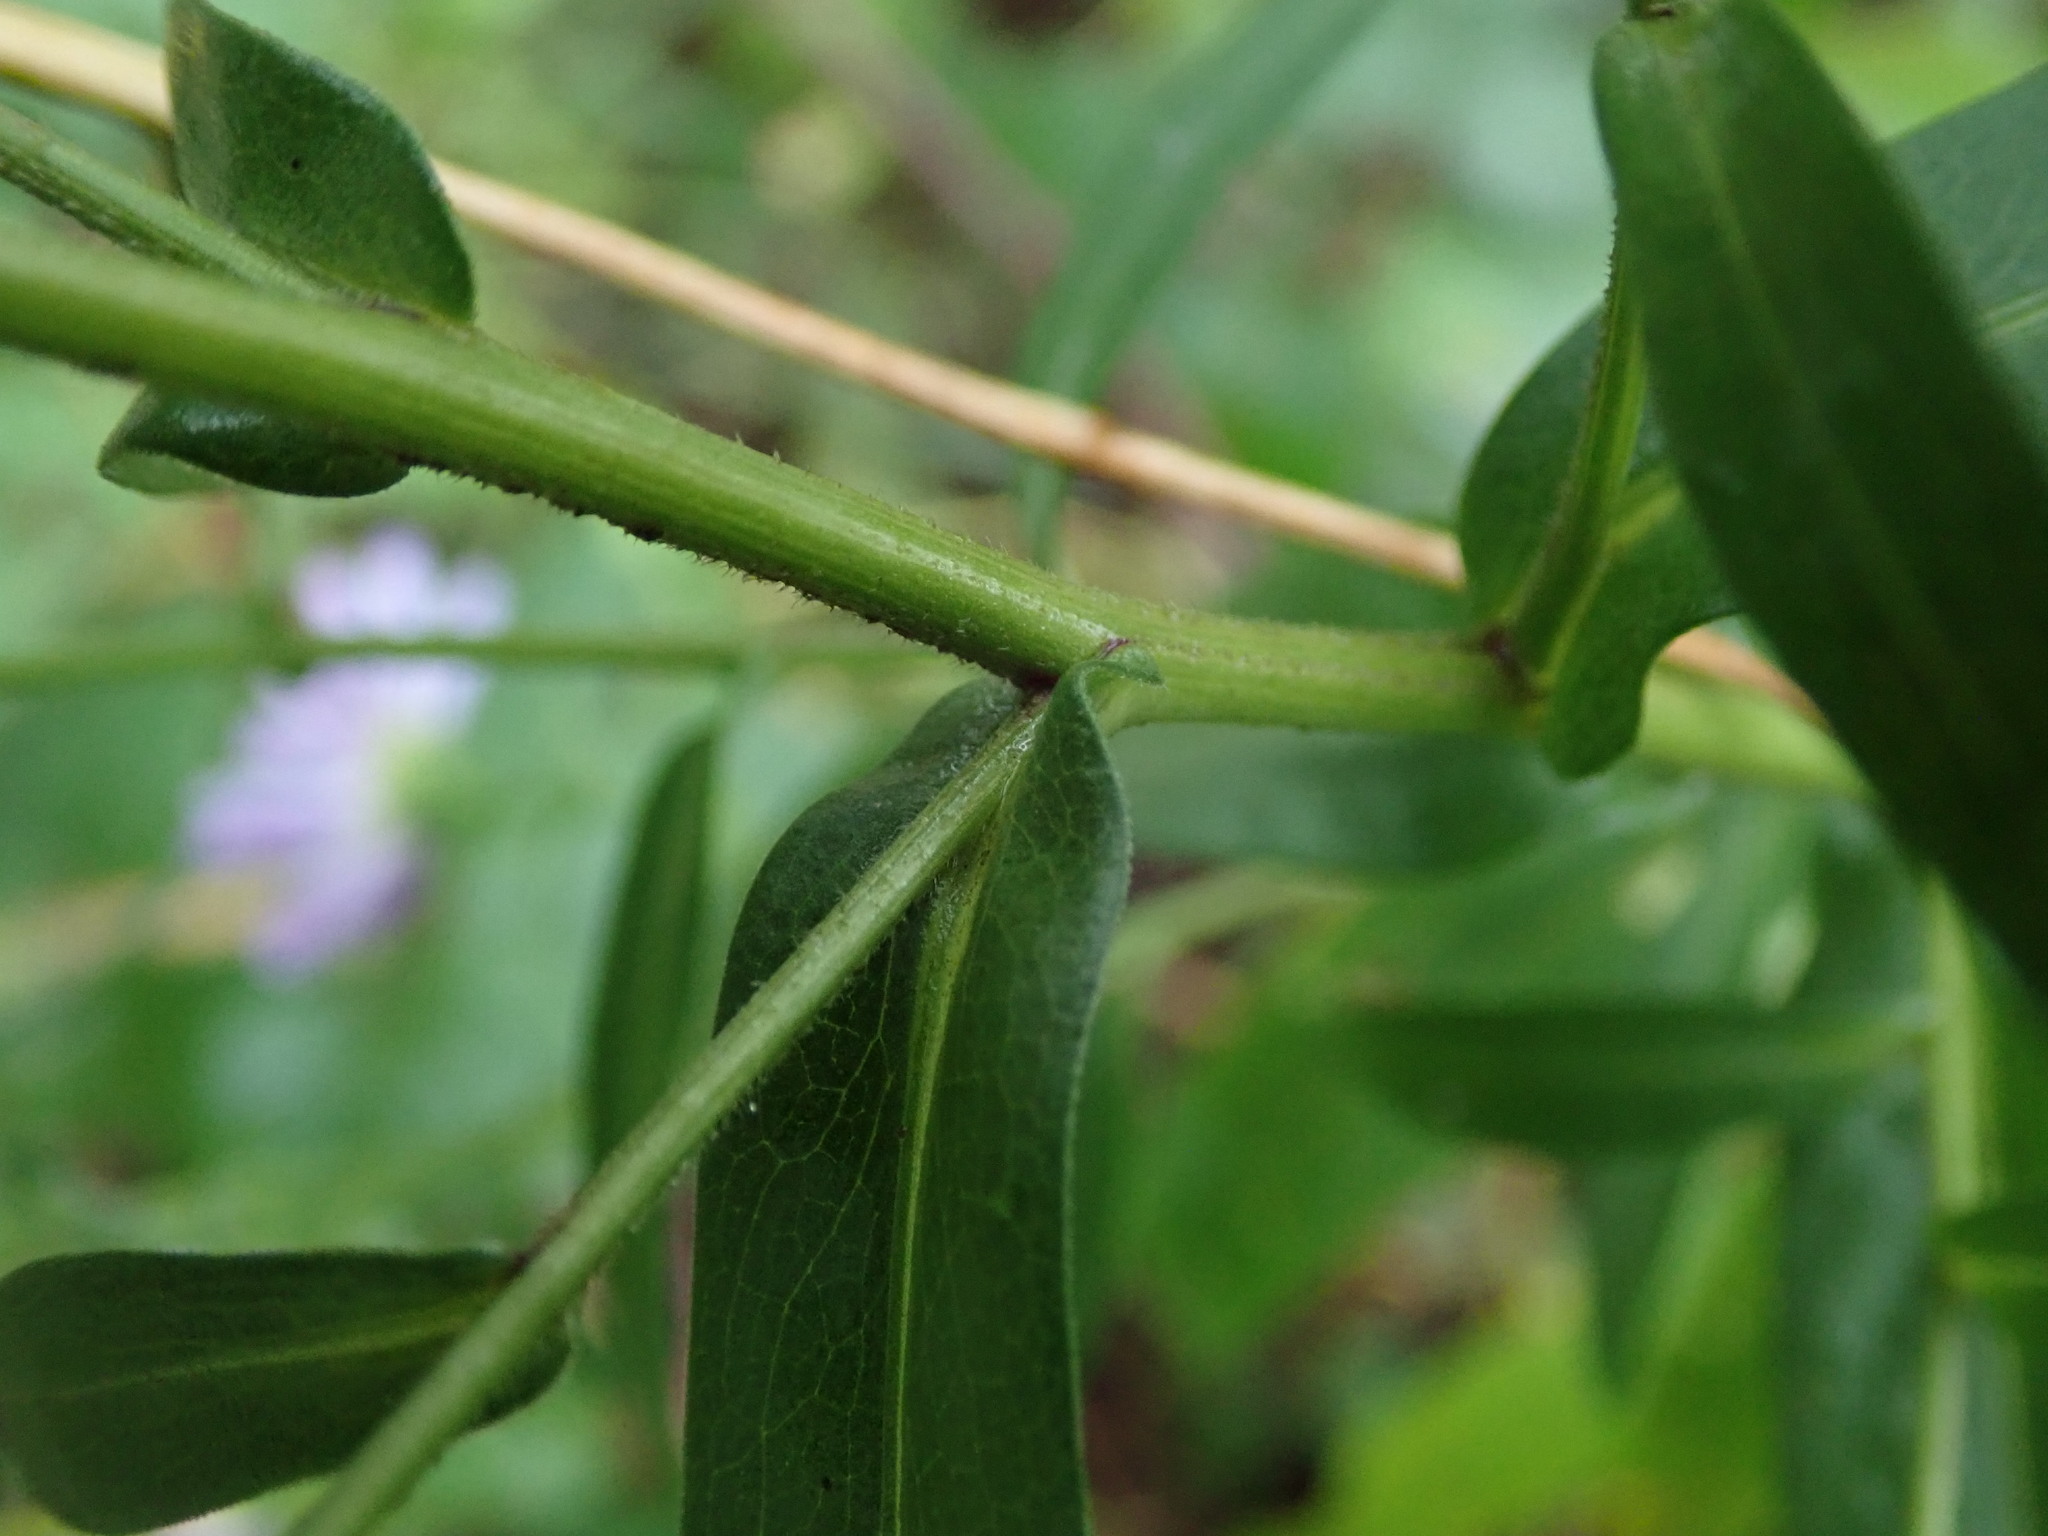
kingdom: Plantae
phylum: Tracheophyta
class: Magnoliopsida
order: Asterales
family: Asteraceae
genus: Symphyotrichum
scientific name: Symphyotrichum novi-belgii
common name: Michaelmas daisy
